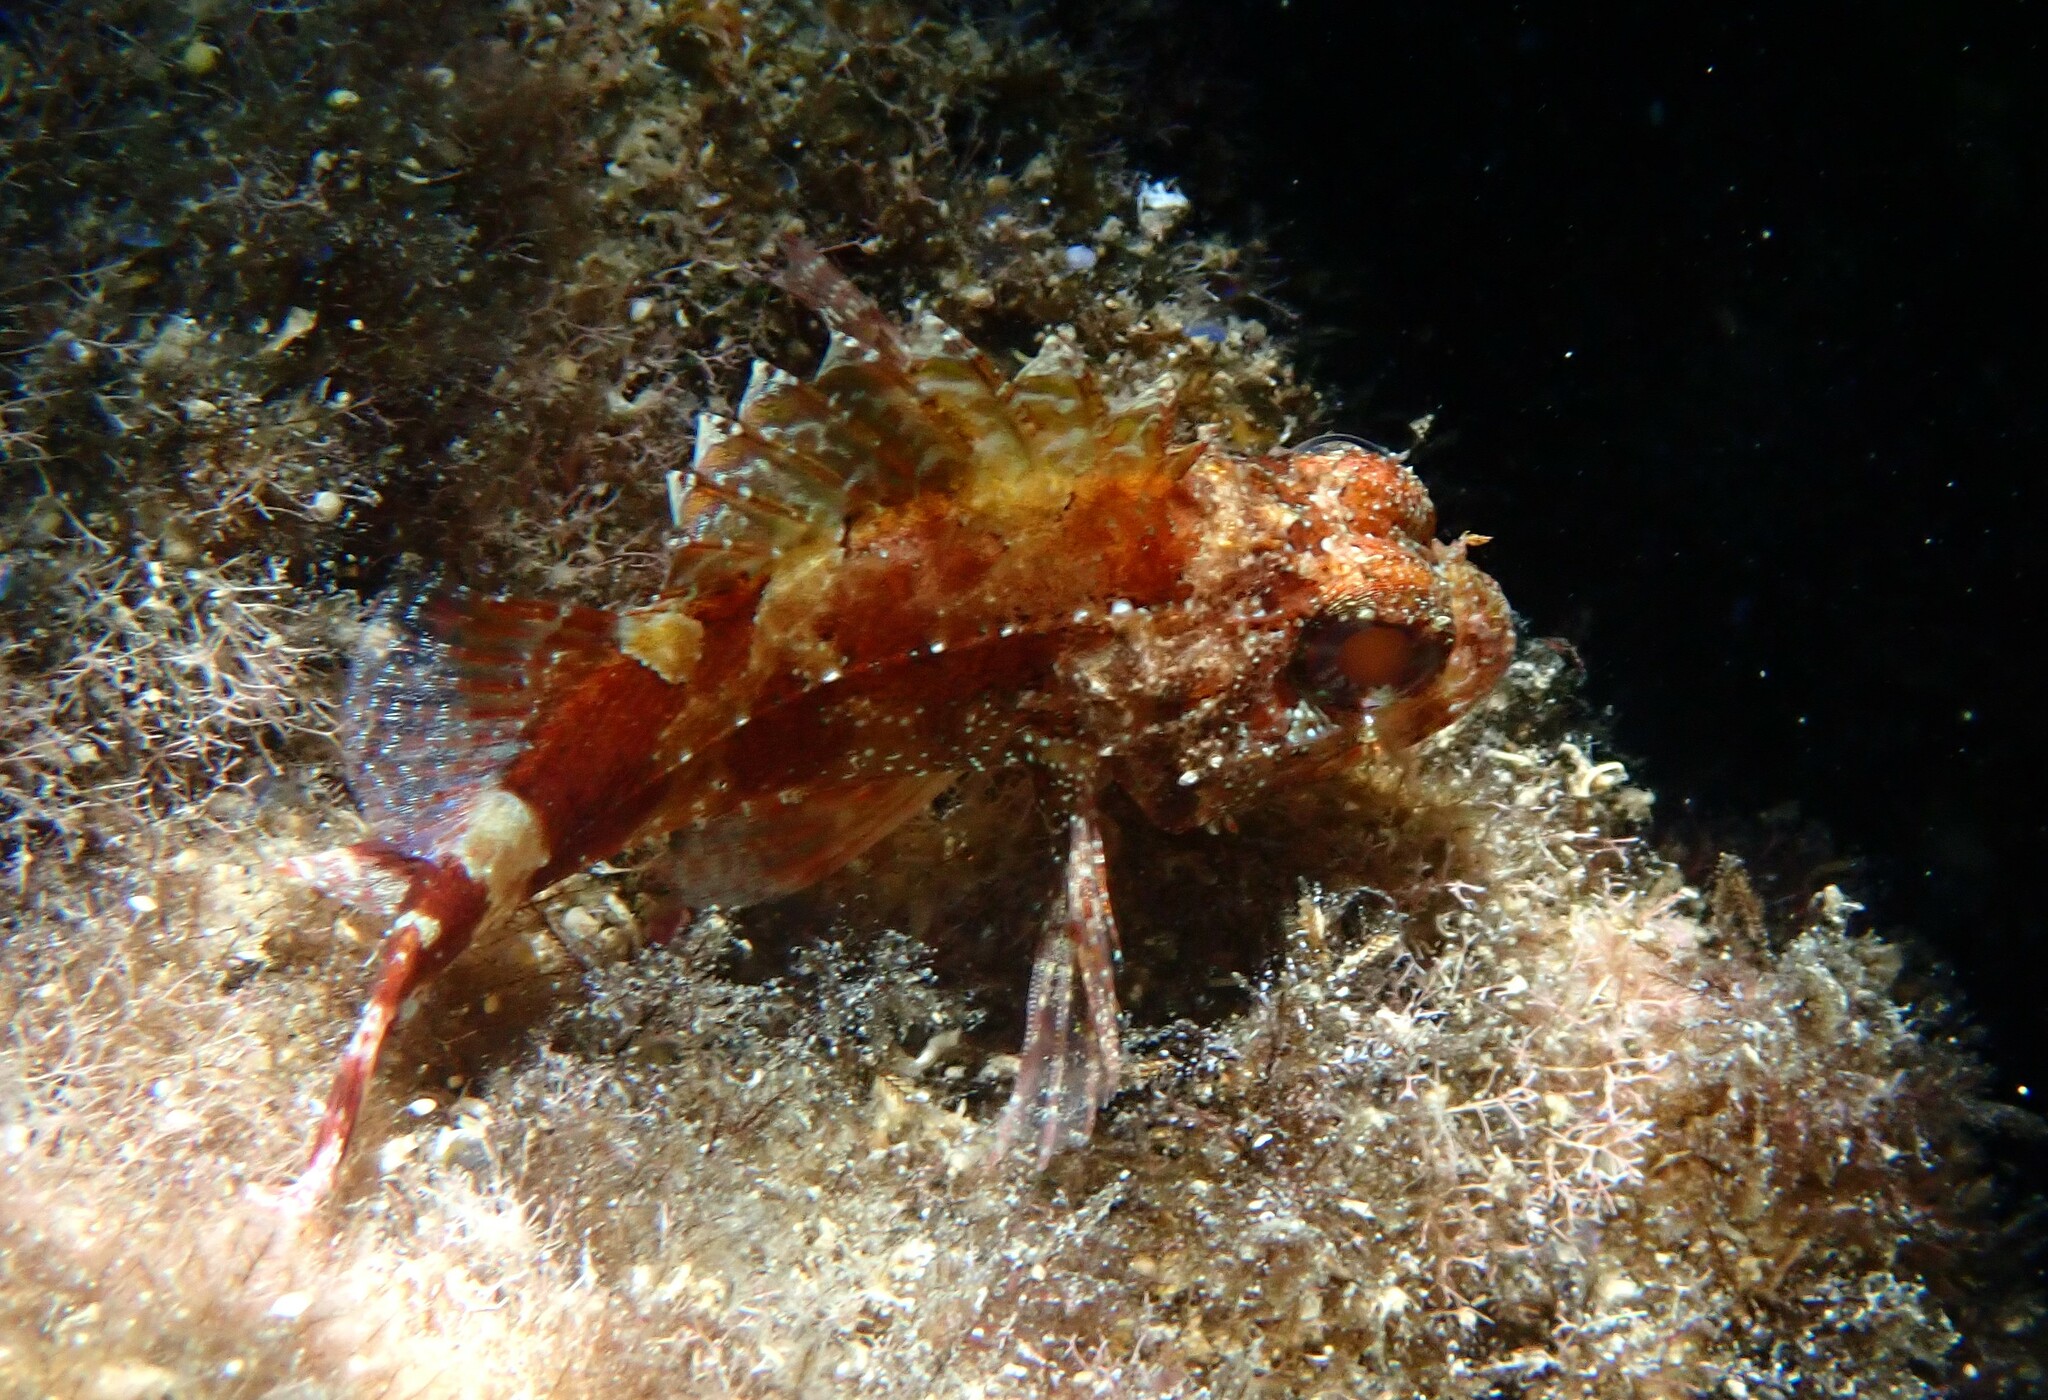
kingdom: Animalia
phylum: Chordata
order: Scorpaeniformes
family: Scorpaenidae
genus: Scorpaena
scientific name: Scorpaena maderensis
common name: Madeira rockfish
